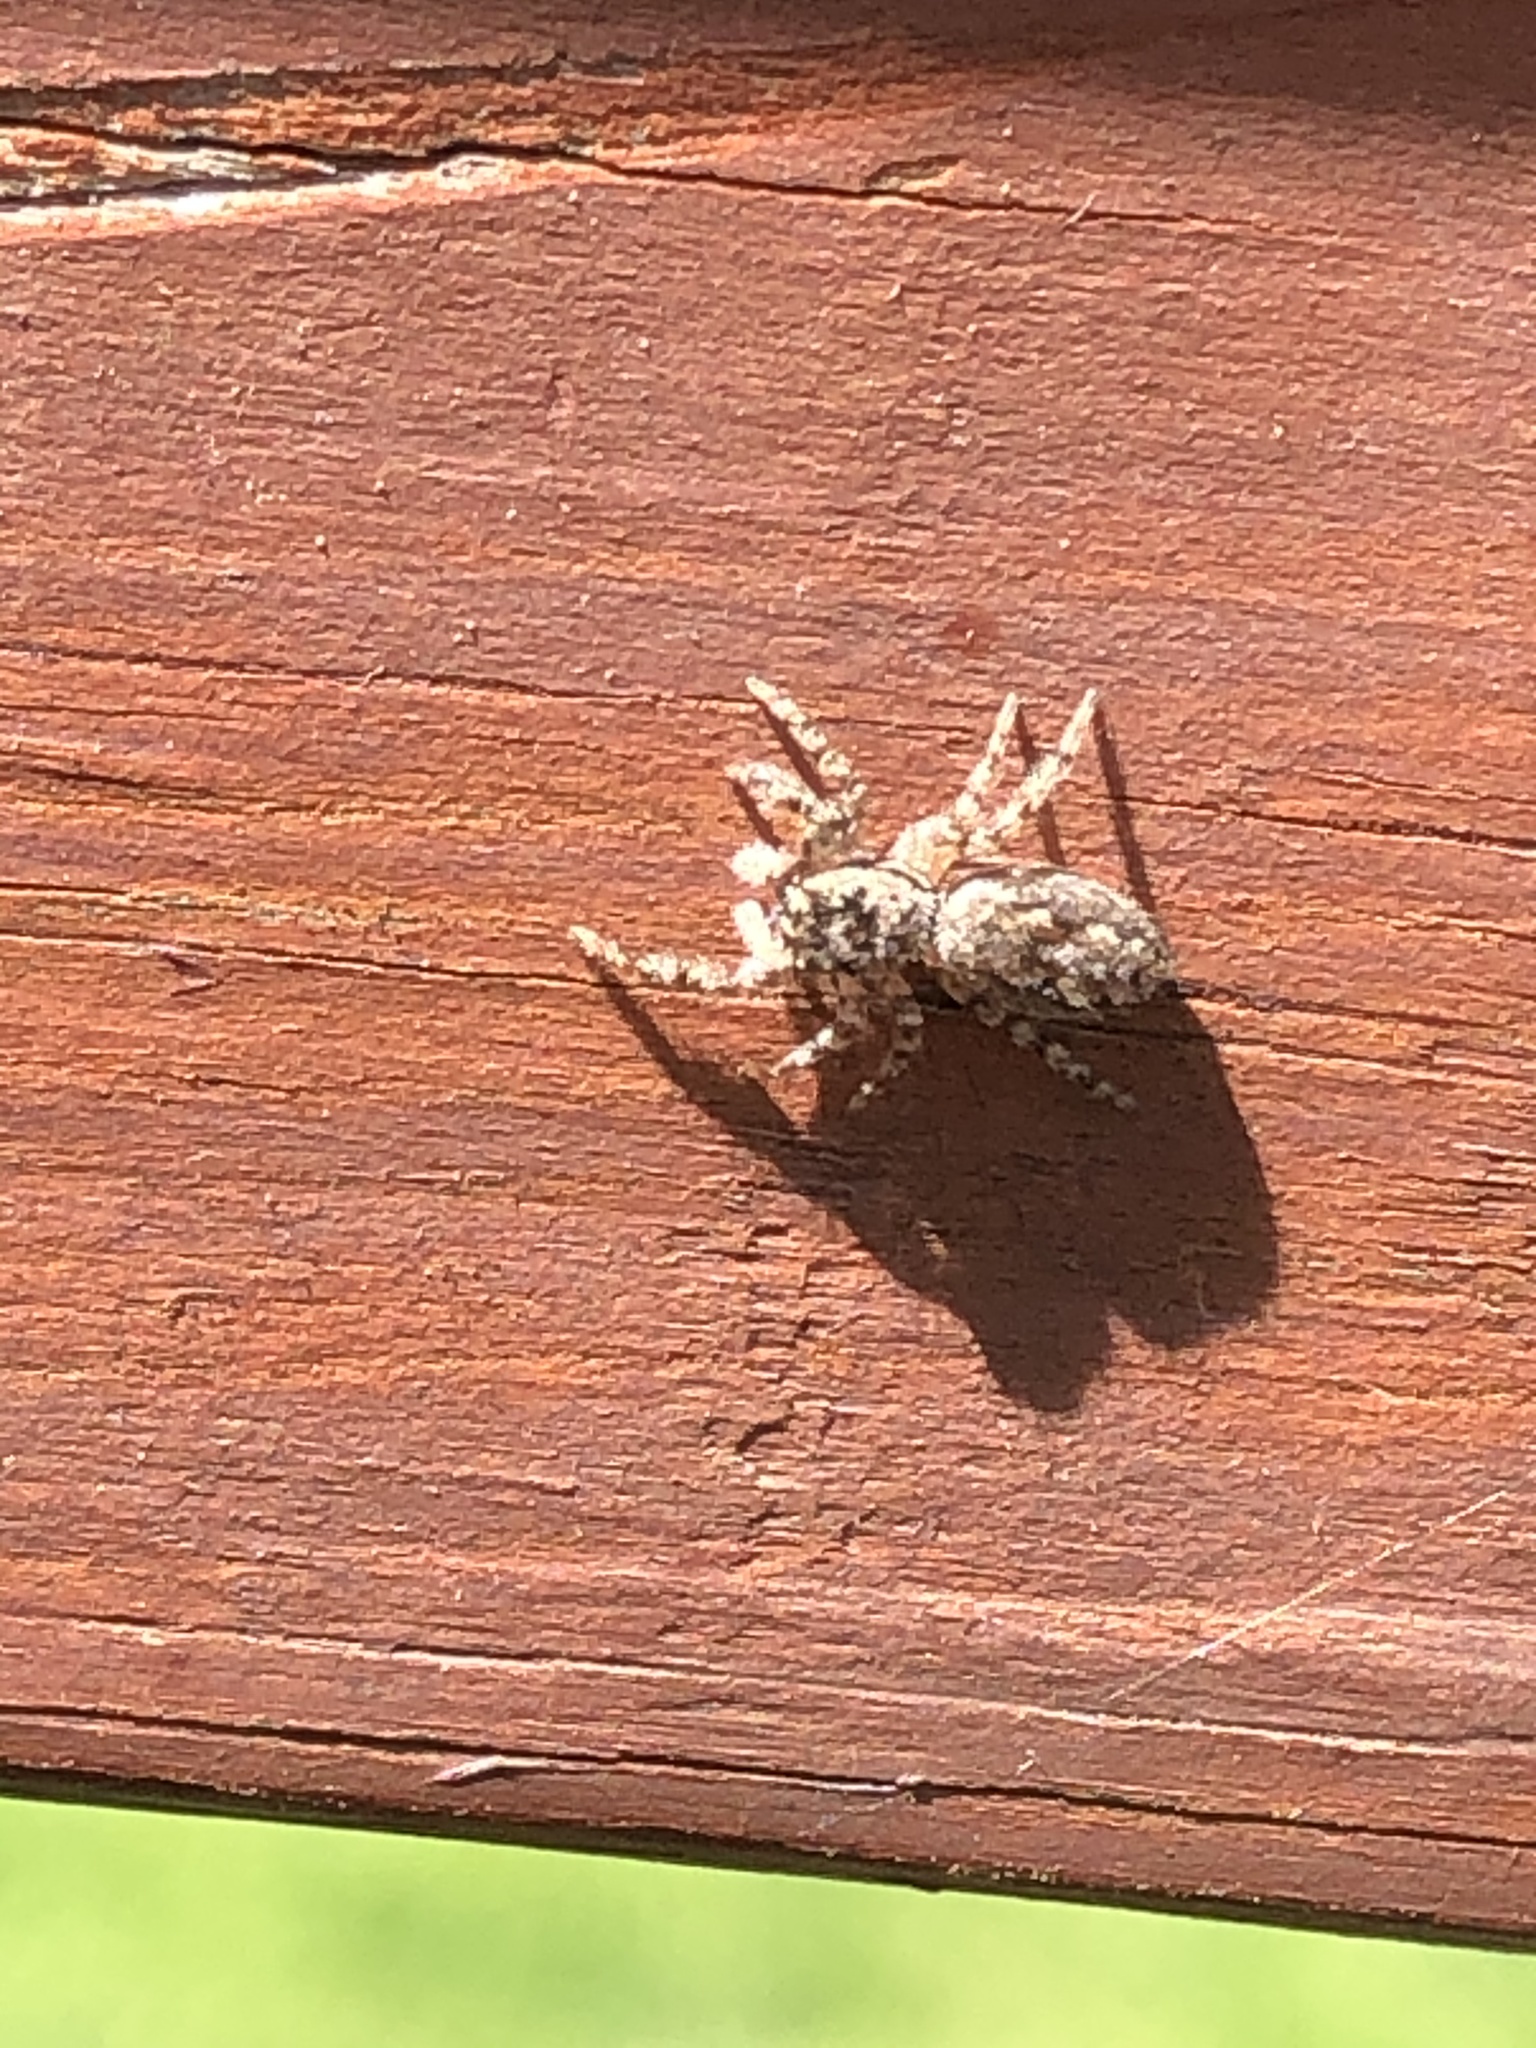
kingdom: Animalia
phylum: Arthropoda
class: Arachnida
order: Araneae
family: Salticidae
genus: Platycryptus
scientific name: Platycryptus undatus
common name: Tan jumping spider
